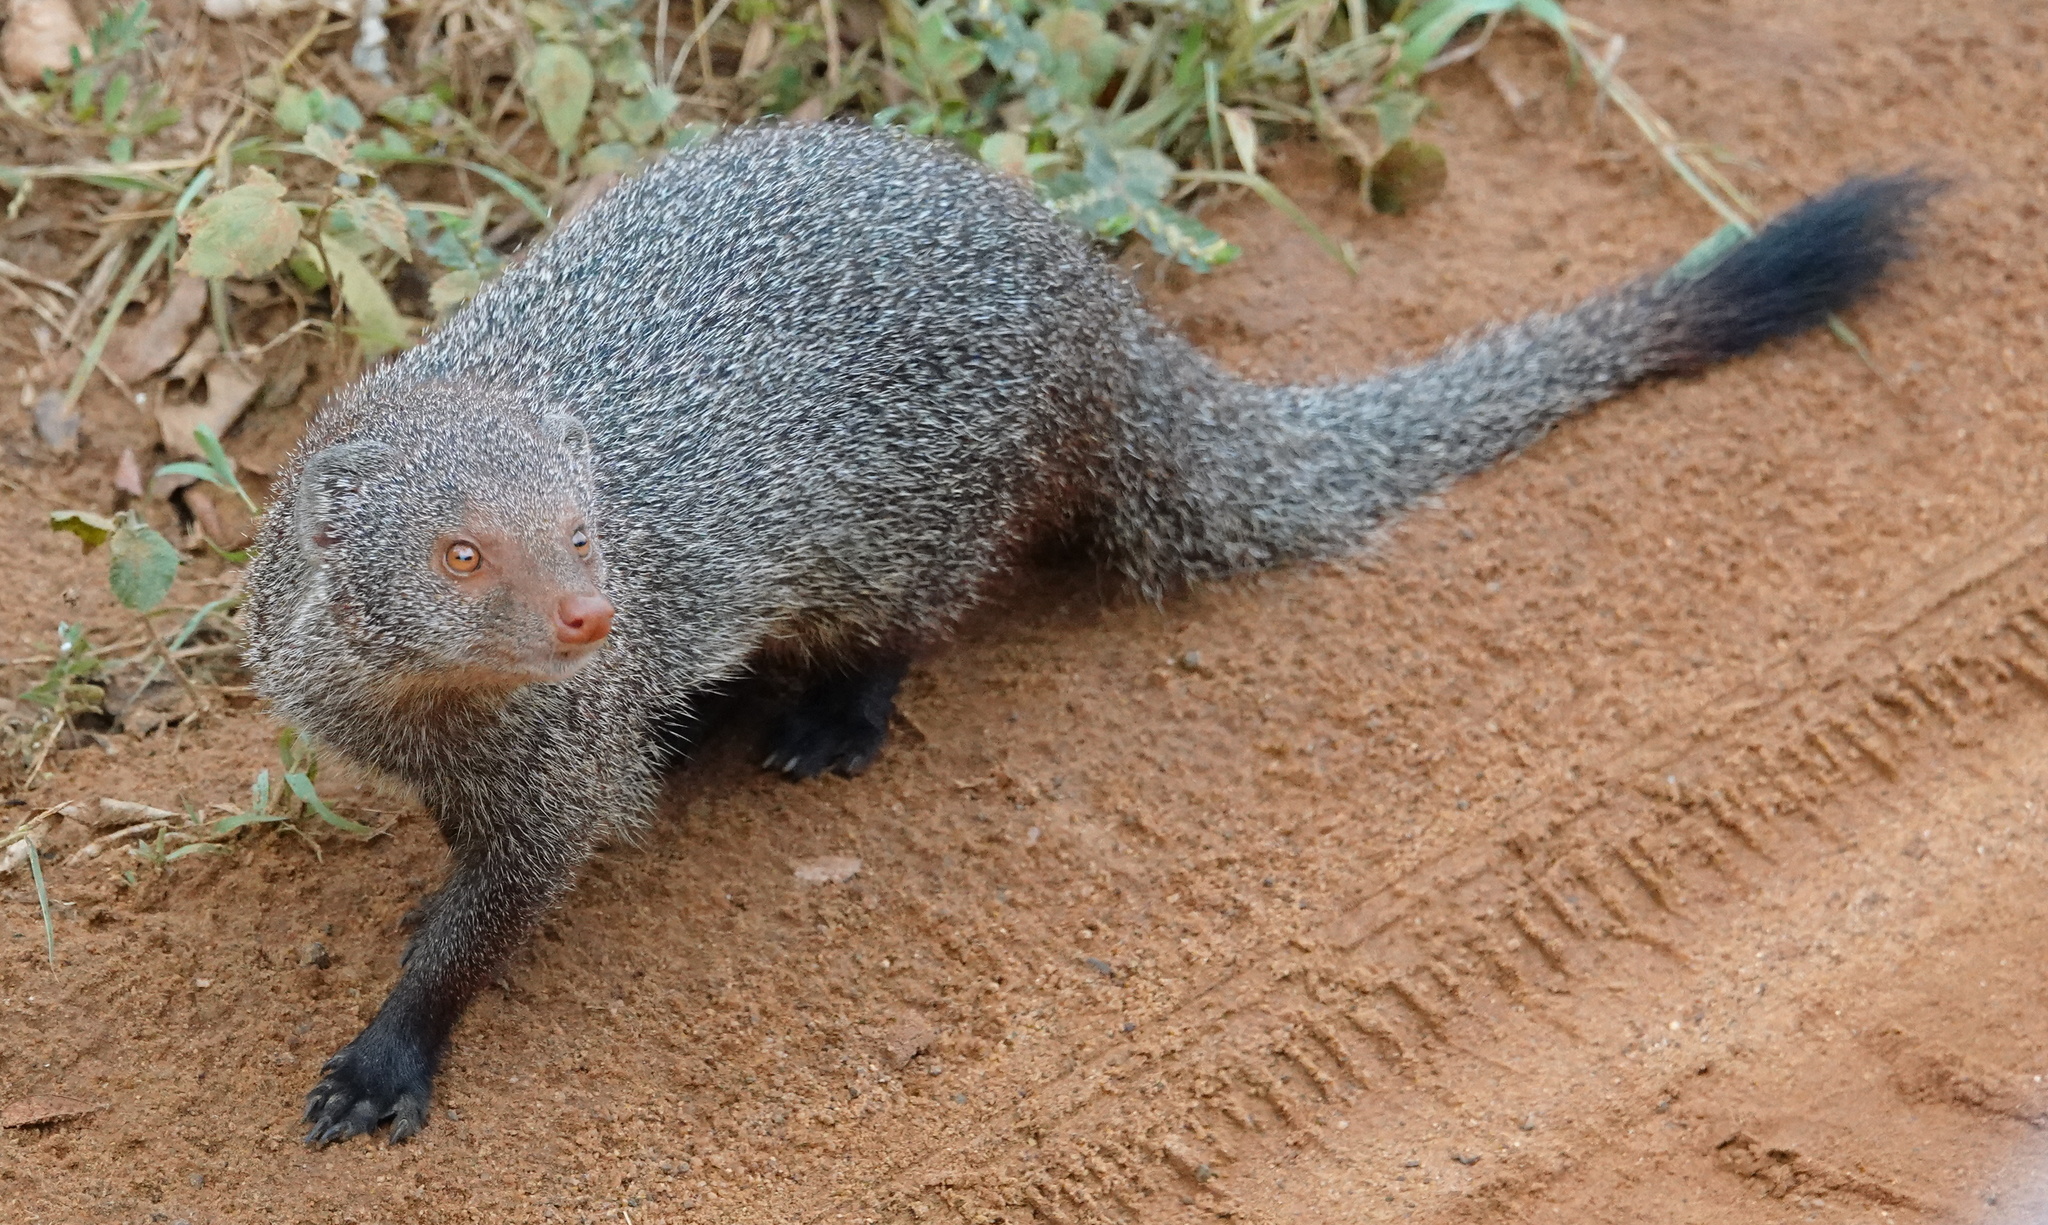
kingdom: Animalia
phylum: Chordata
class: Mammalia
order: Carnivora
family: Herpestidae
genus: Herpestes
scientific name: Herpestes smithii
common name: Ruddy mongoose
